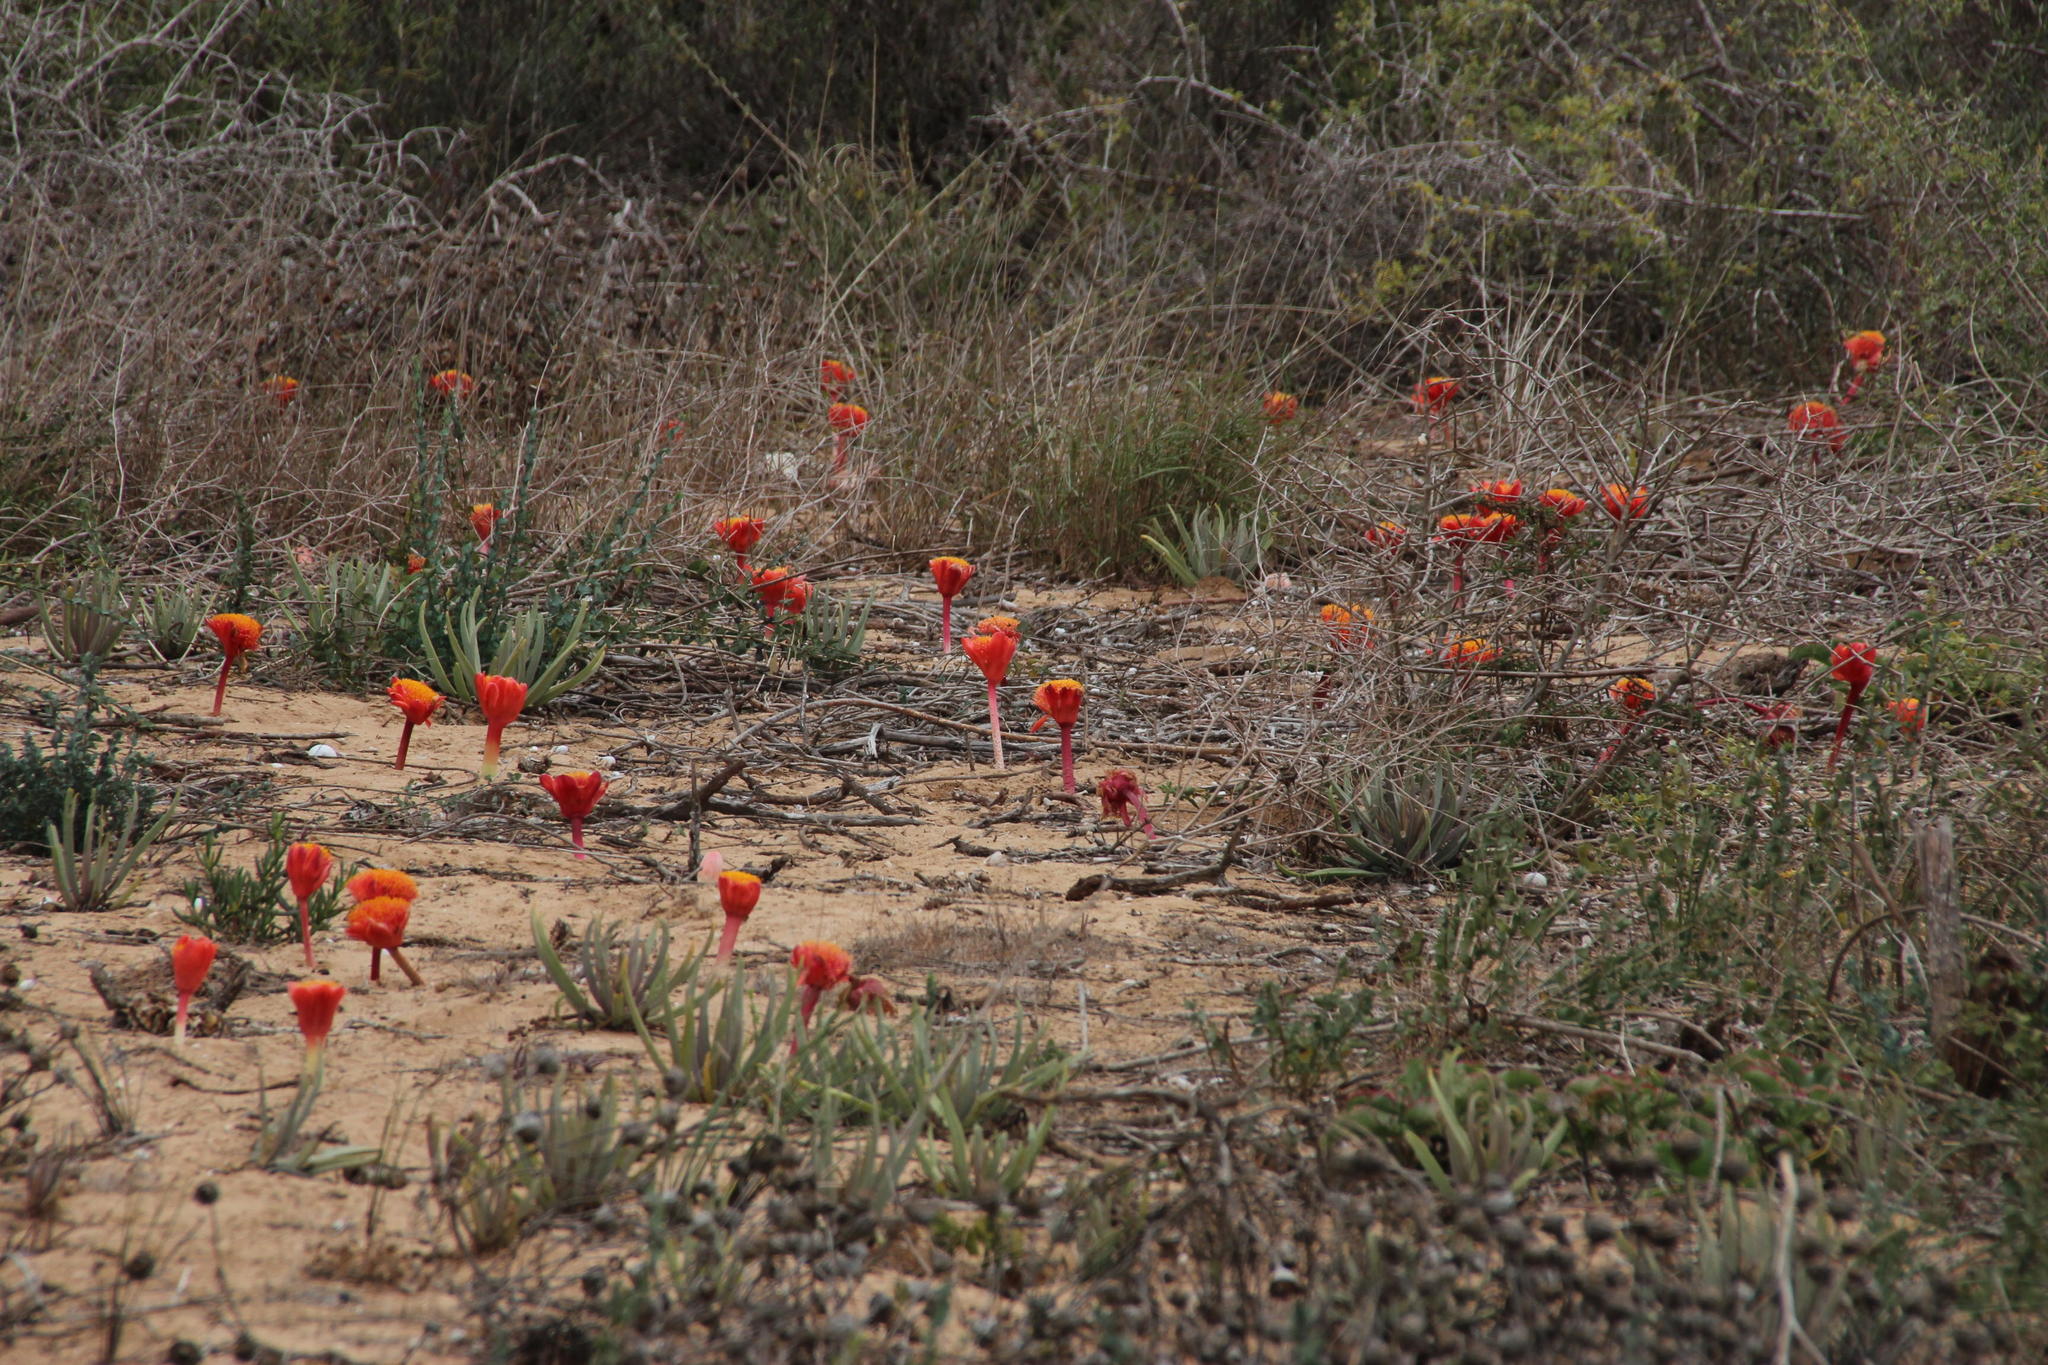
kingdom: Plantae
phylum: Tracheophyta
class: Liliopsida
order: Asparagales
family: Amaryllidaceae
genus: Haemanthus
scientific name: Haemanthus coccineus
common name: Cape-tulip
